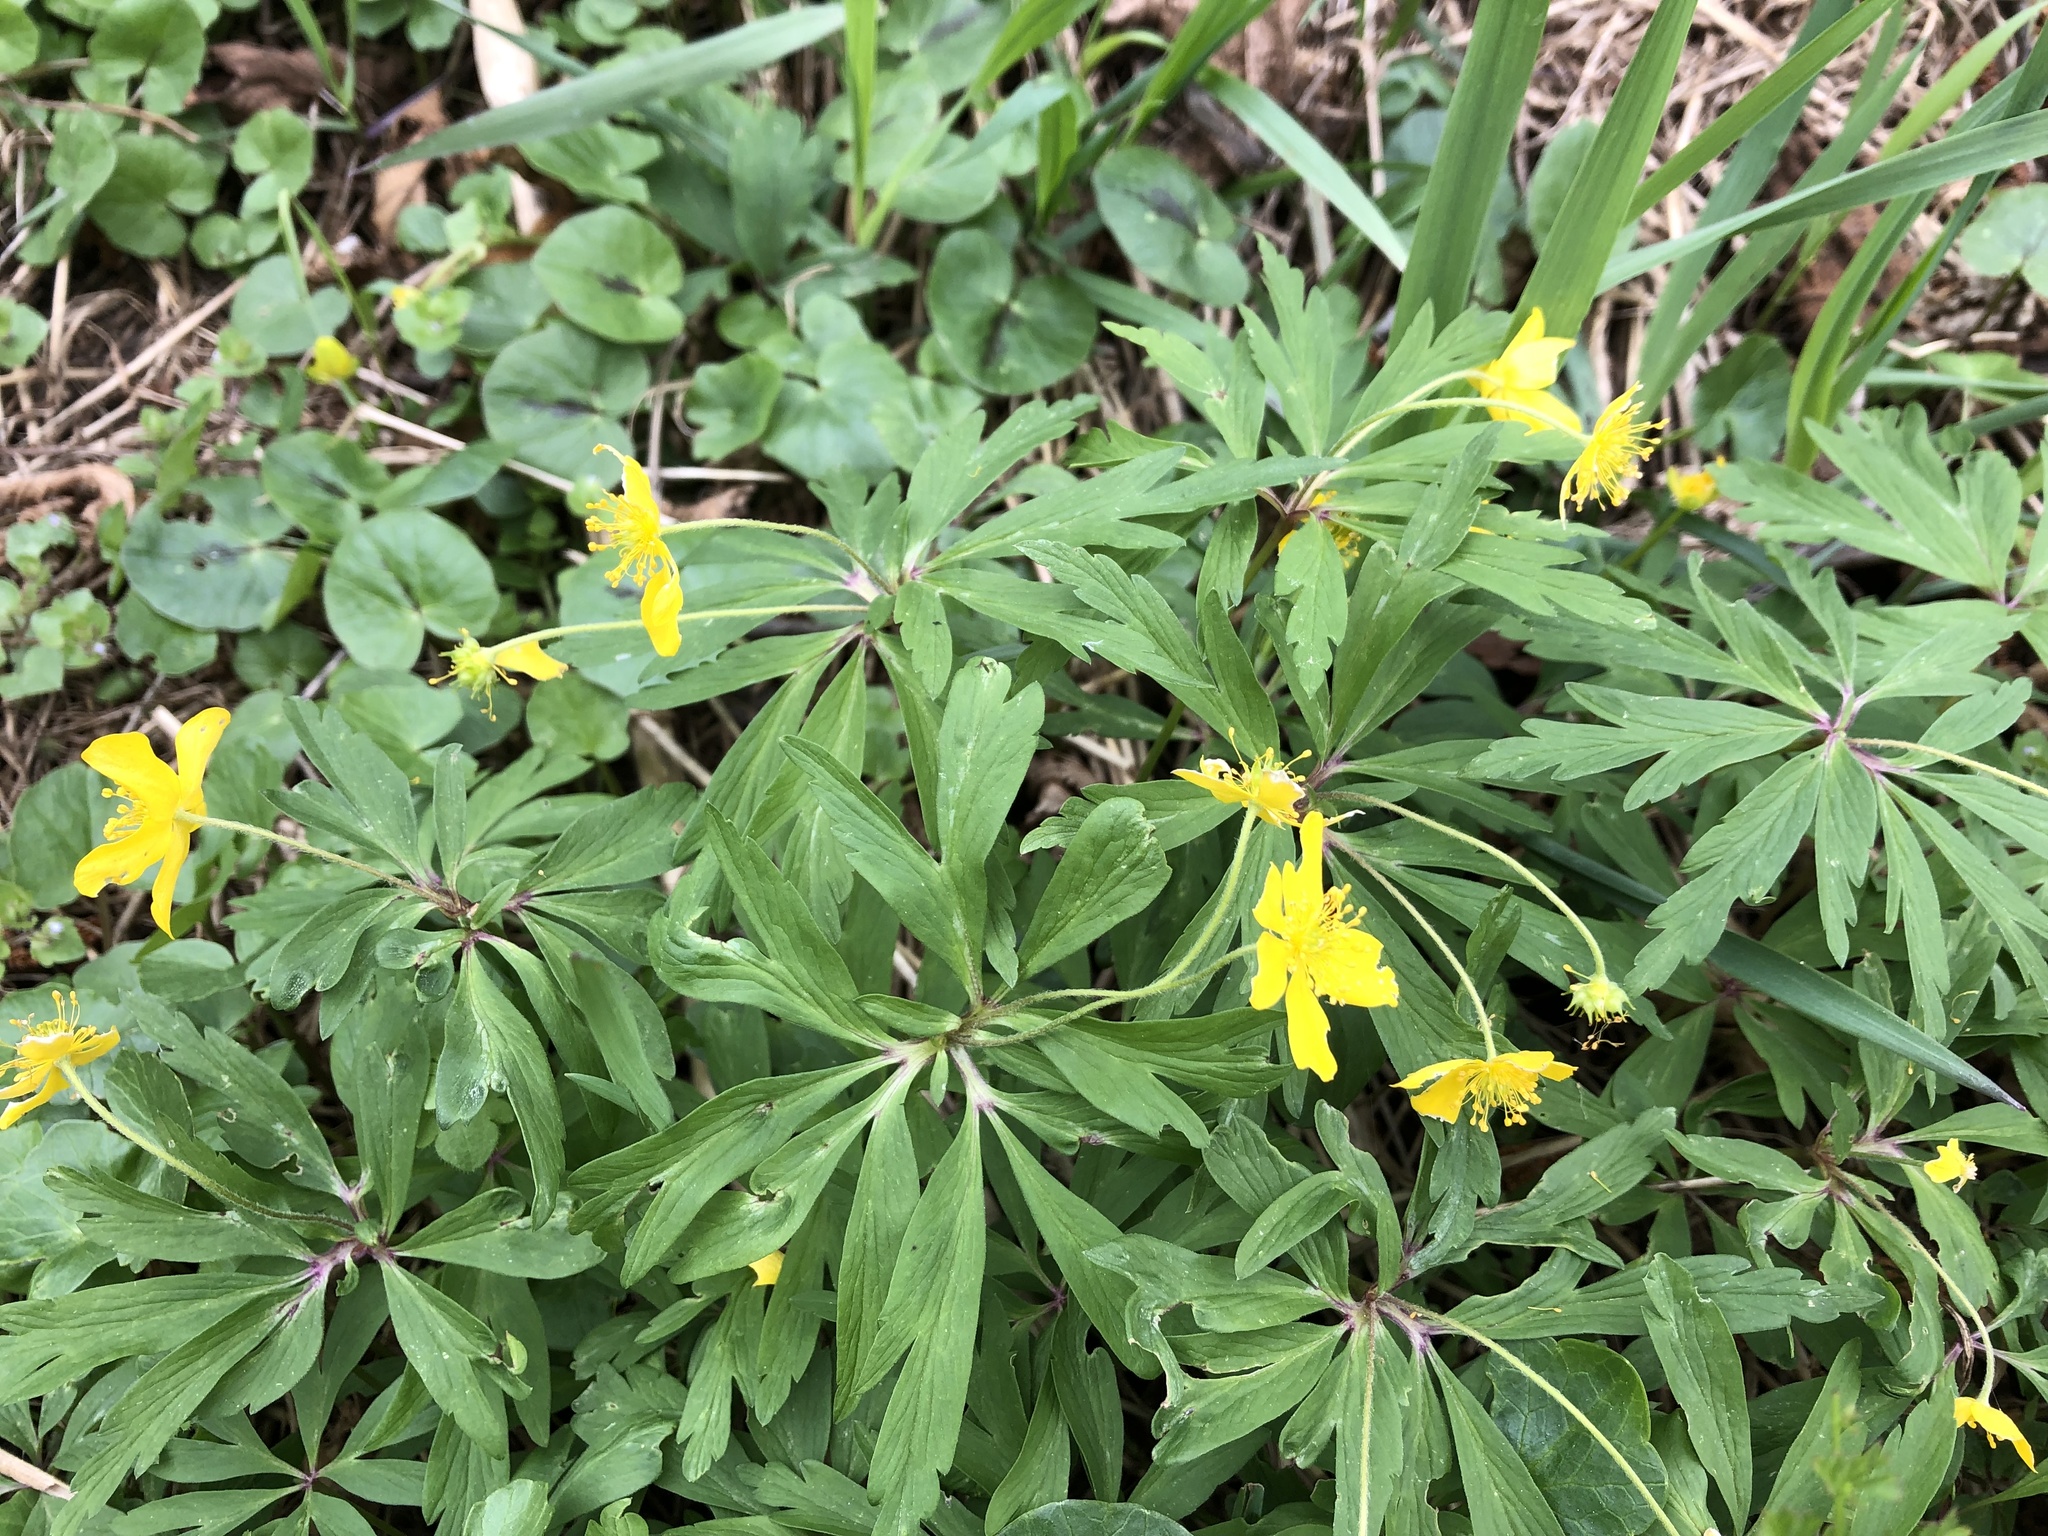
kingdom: Plantae
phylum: Tracheophyta
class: Magnoliopsida
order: Ranunculales
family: Ranunculaceae
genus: Anemone
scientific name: Anemone ranunculoides
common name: Yellow anemone
